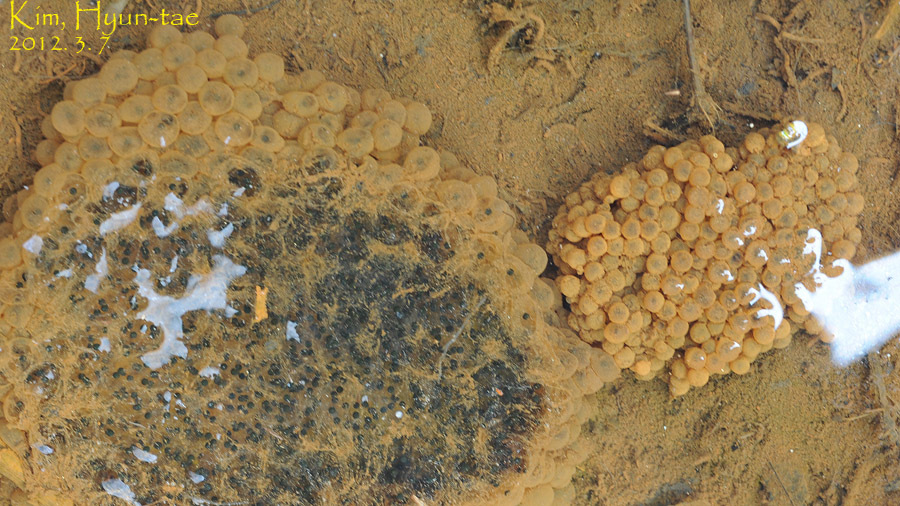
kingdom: Animalia
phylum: Chordata
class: Amphibia
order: Anura
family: Ranidae
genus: Rana
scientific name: Rana coreana
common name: Korean brown frog
